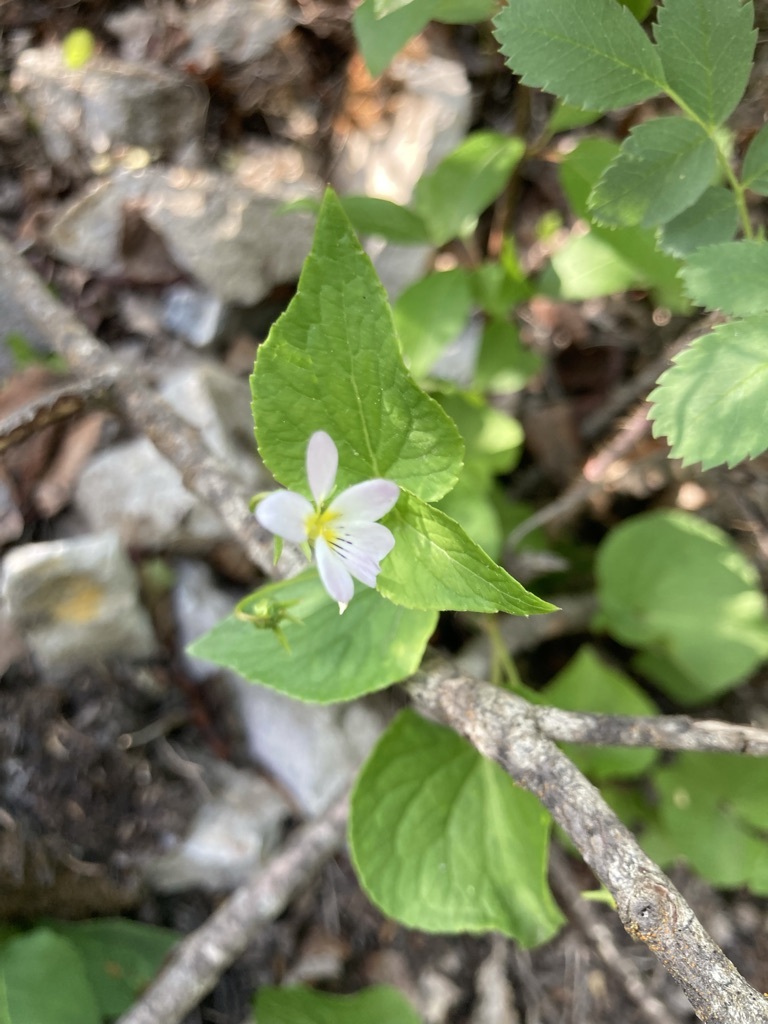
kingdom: Plantae
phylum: Tracheophyta
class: Magnoliopsida
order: Malpighiales
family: Violaceae
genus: Viola
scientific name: Viola canadensis
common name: Canada violet
